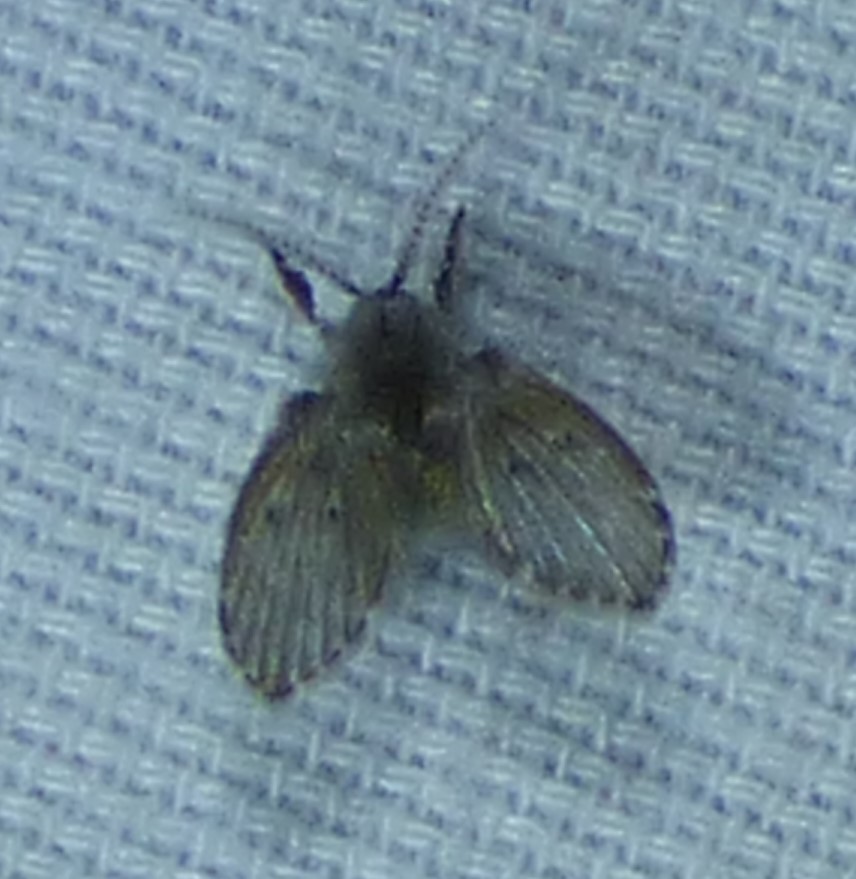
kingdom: Animalia
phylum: Arthropoda
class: Insecta
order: Diptera
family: Psychodidae
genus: Clogmia
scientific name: Clogmia albipunctatus
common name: White-spotted moth fly
